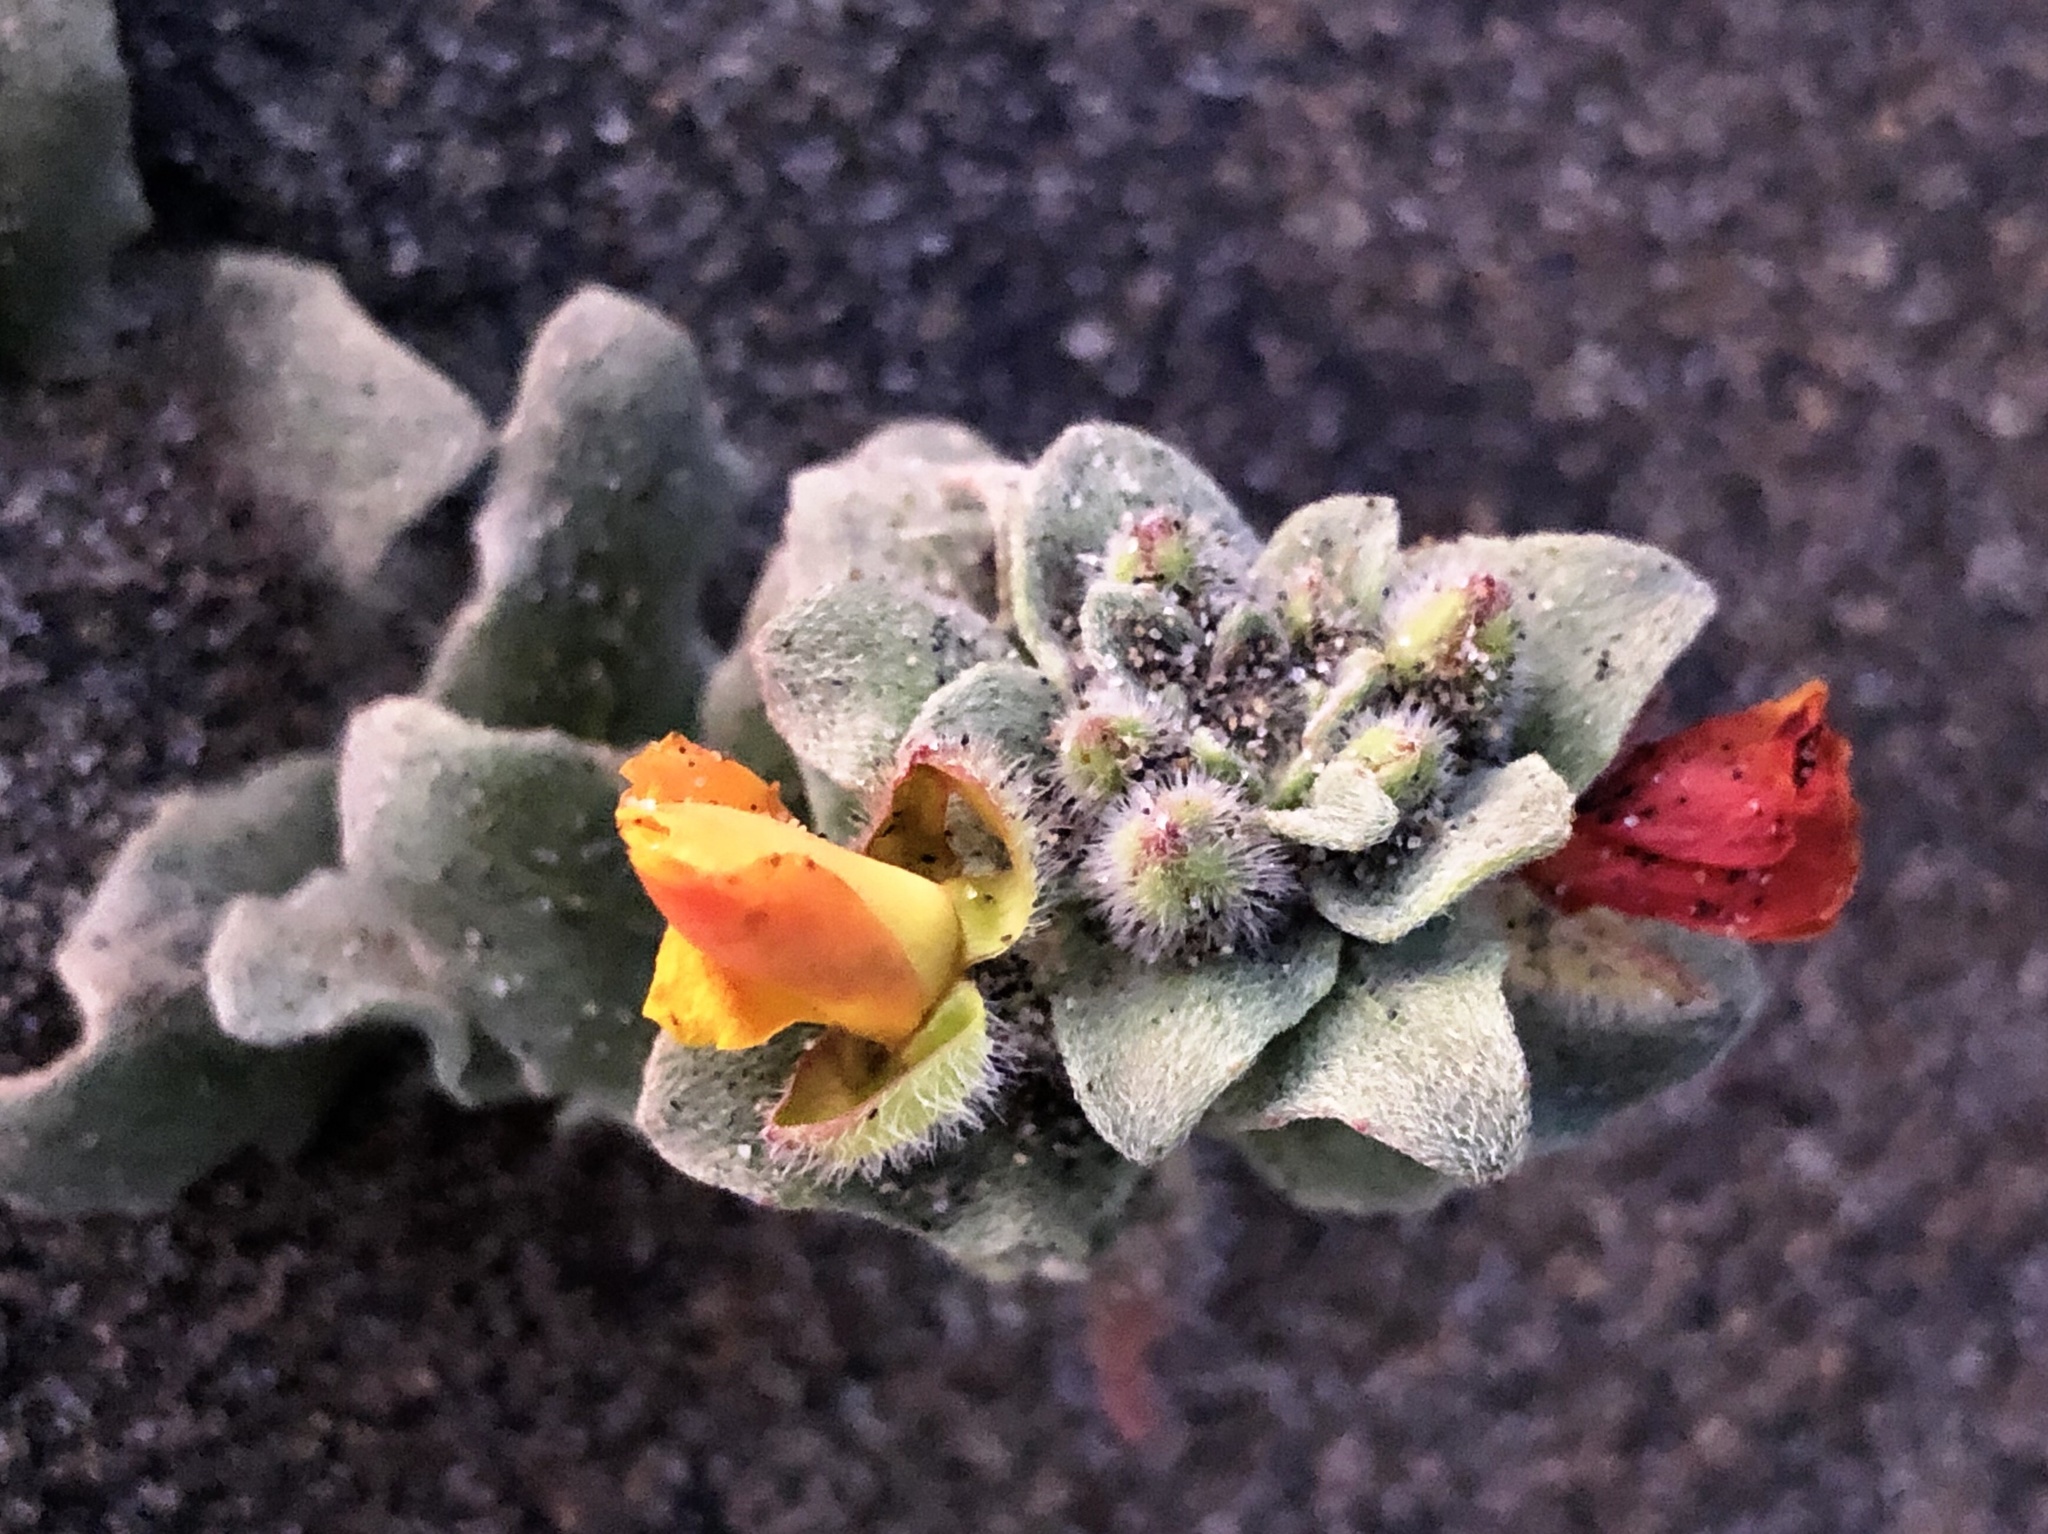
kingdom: Plantae
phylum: Tracheophyta
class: Magnoliopsida
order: Myrtales
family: Onagraceae
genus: Camissoniopsis
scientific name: Camissoniopsis cheiranthifolia
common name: Beach suncup
